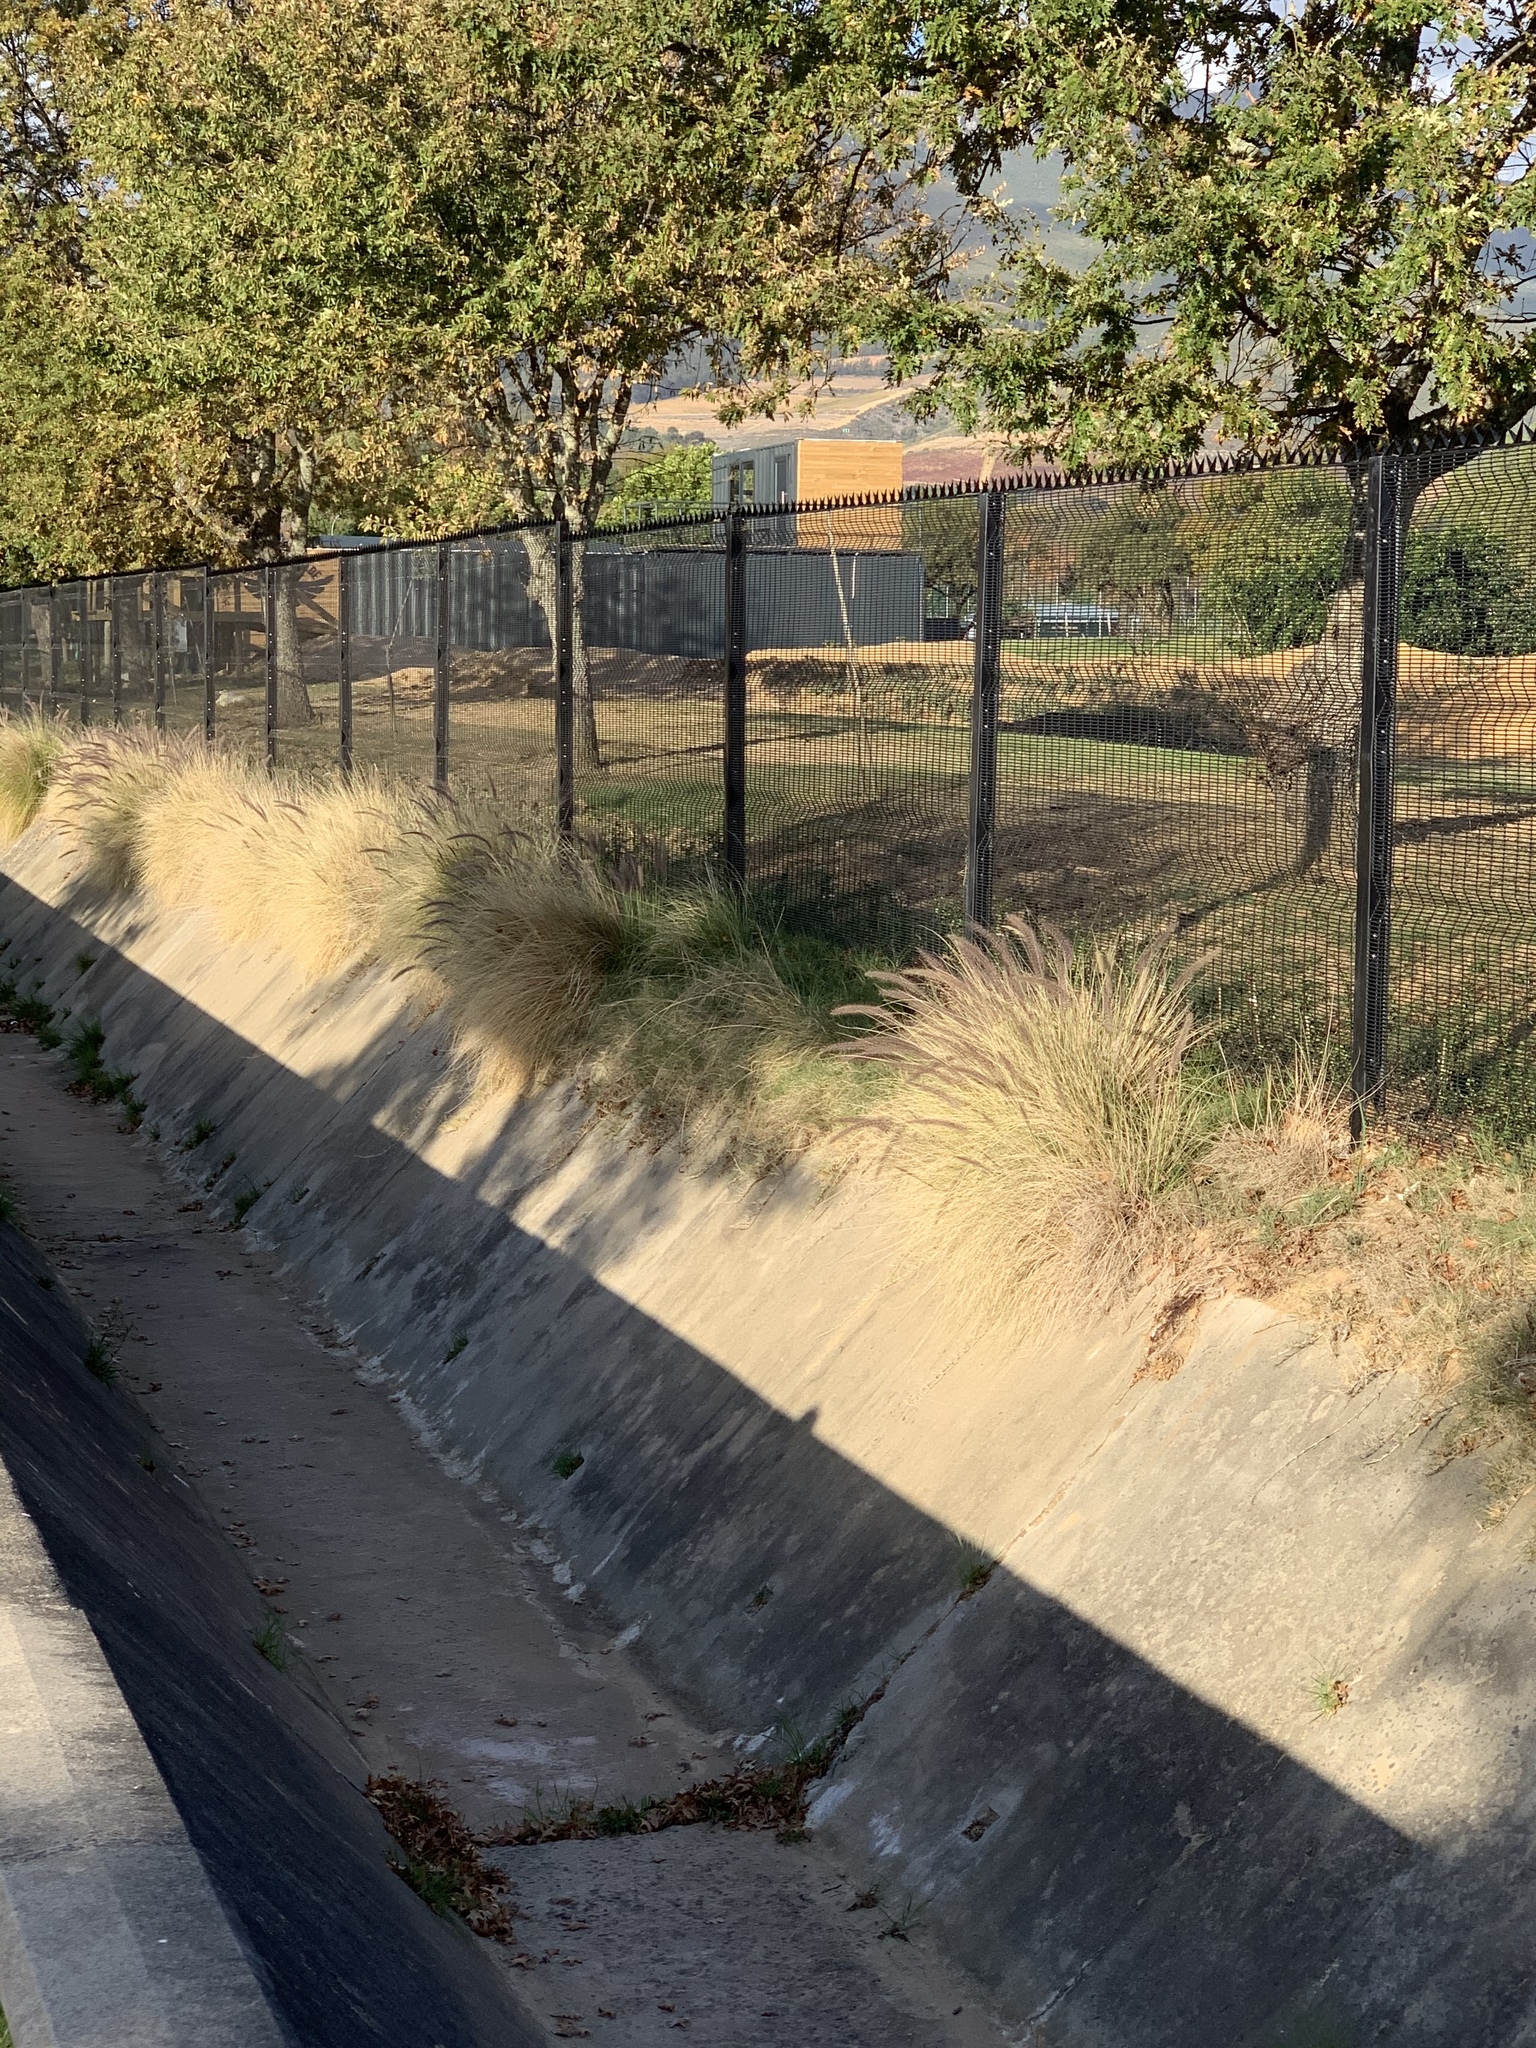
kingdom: Plantae
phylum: Tracheophyta
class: Liliopsida
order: Poales
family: Poaceae
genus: Cenchrus
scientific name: Cenchrus setaceus
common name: Crimson fountaingrass
